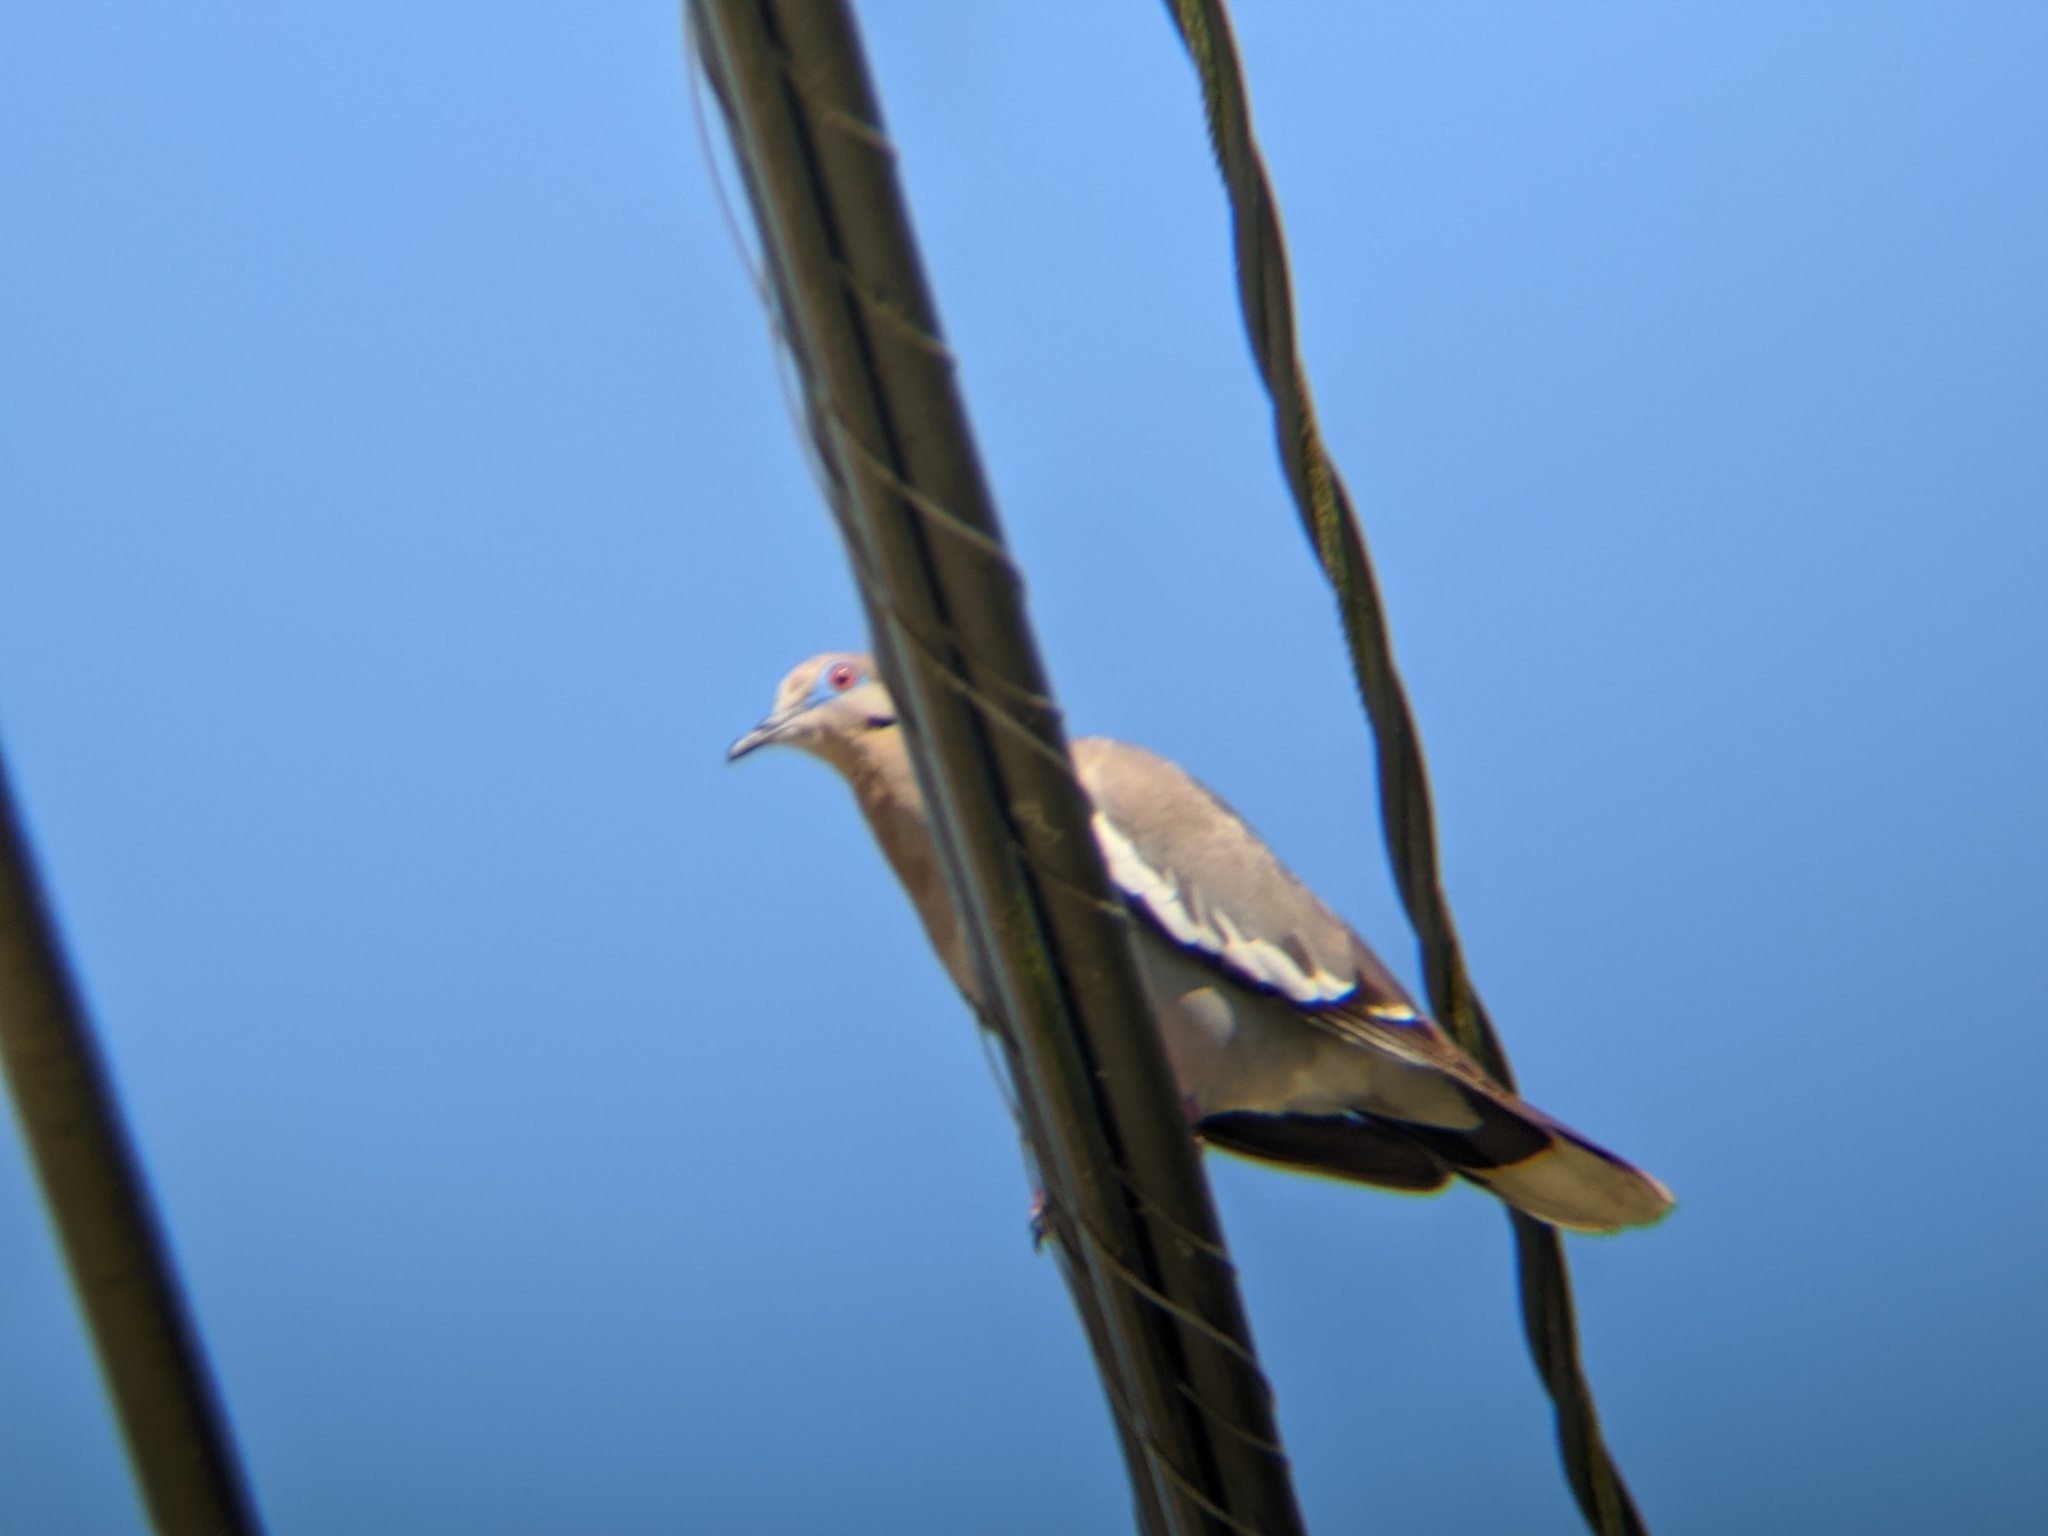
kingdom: Animalia
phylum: Chordata
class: Aves
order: Columbiformes
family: Columbidae
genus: Zenaida
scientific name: Zenaida asiatica
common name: White-winged dove
